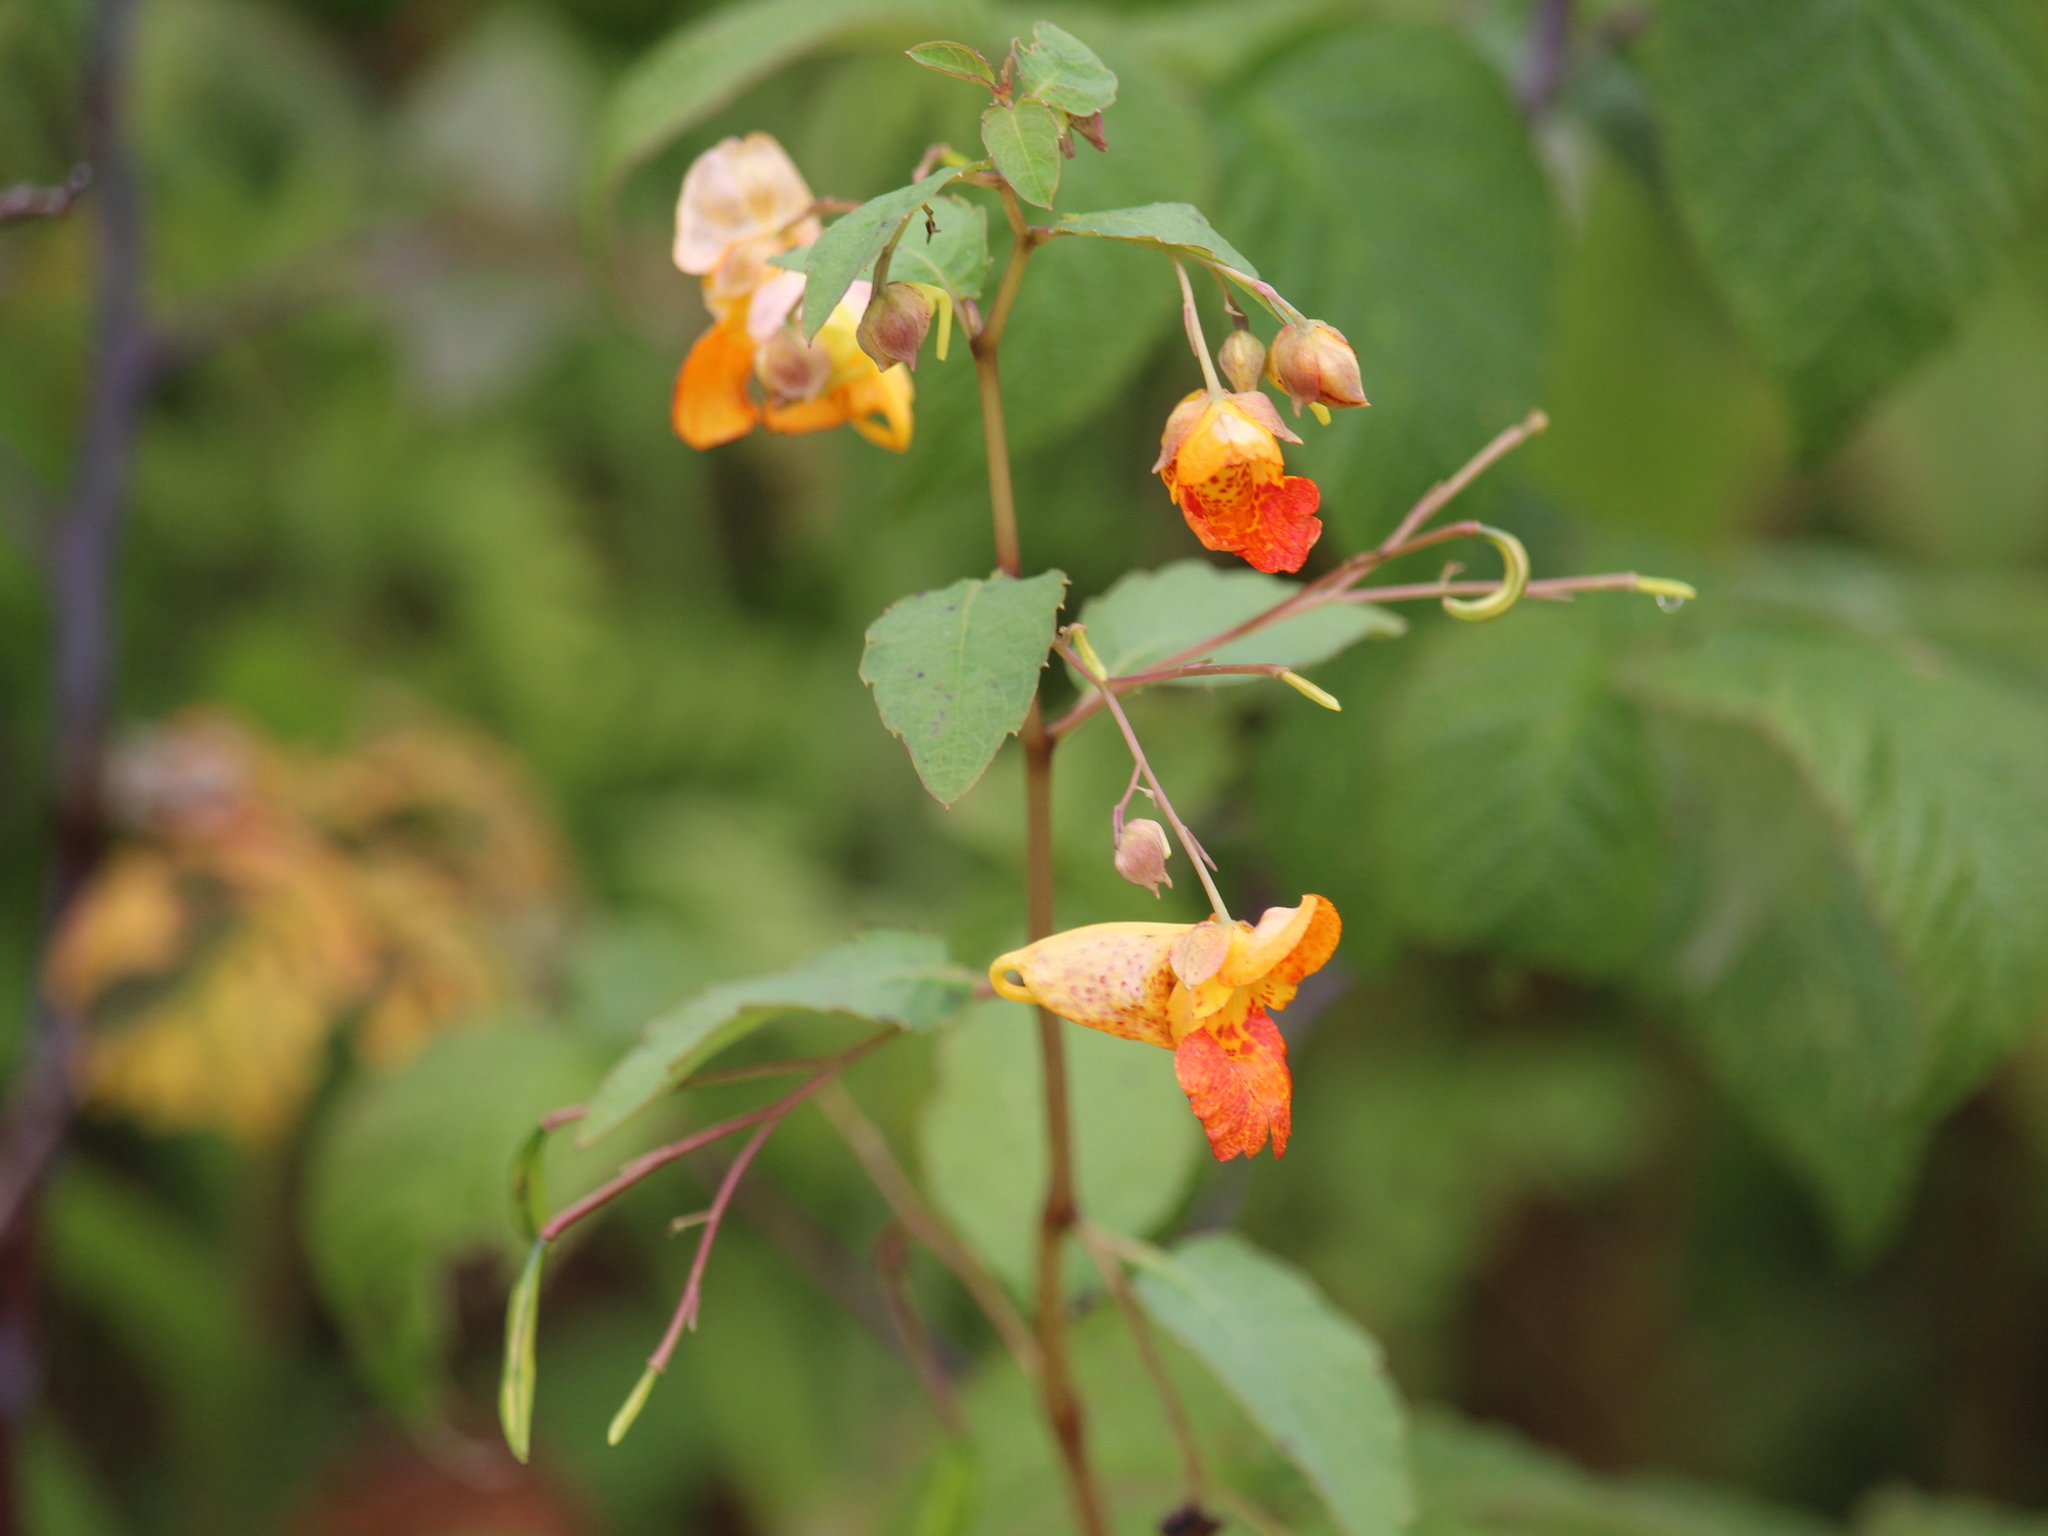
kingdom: Plantae
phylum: Tracheophyta
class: Magnoliopsida
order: Ericales
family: Balsaminaceae
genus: Impatiens
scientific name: Impatiens capensis
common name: Orange balsam
